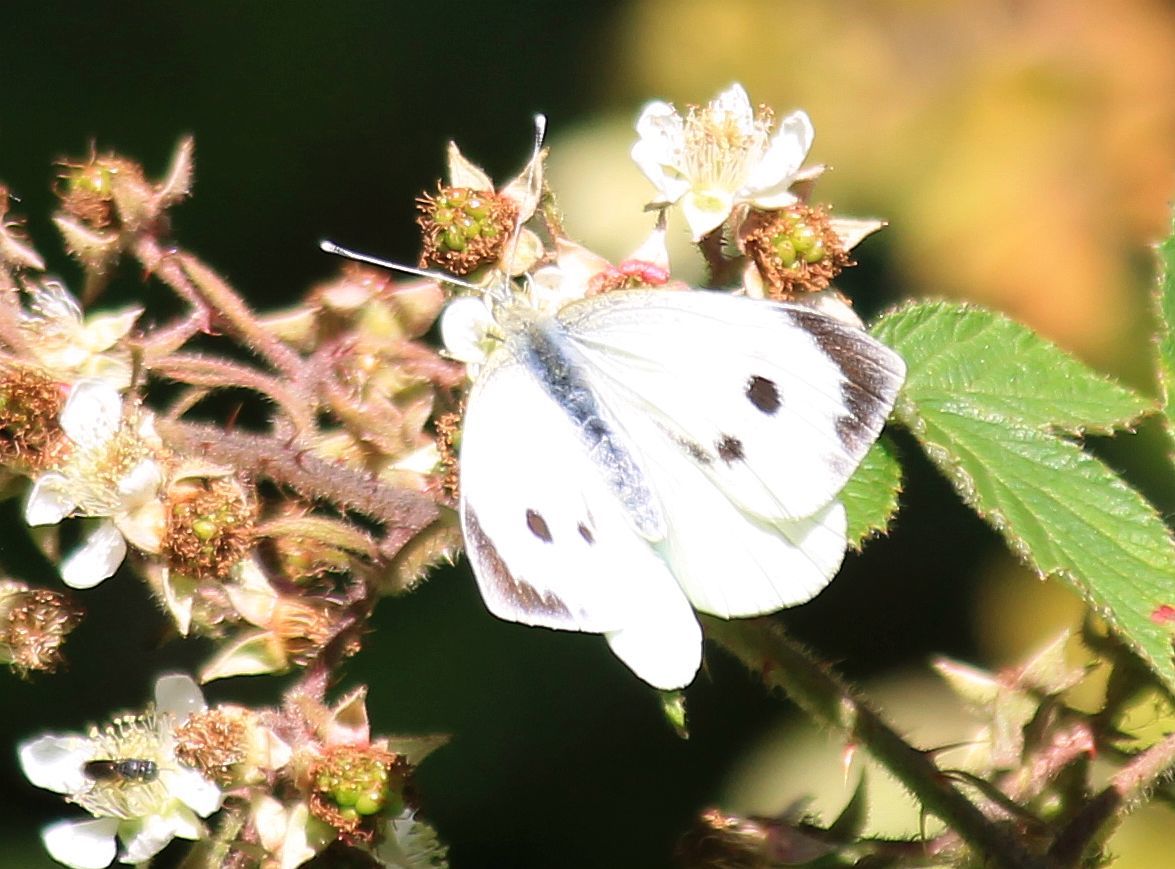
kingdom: Animalia
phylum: Arthropoda
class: Insecta
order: Lepidoptera
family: Pieridae
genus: Pieris
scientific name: Pieris brassicae
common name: Large white
